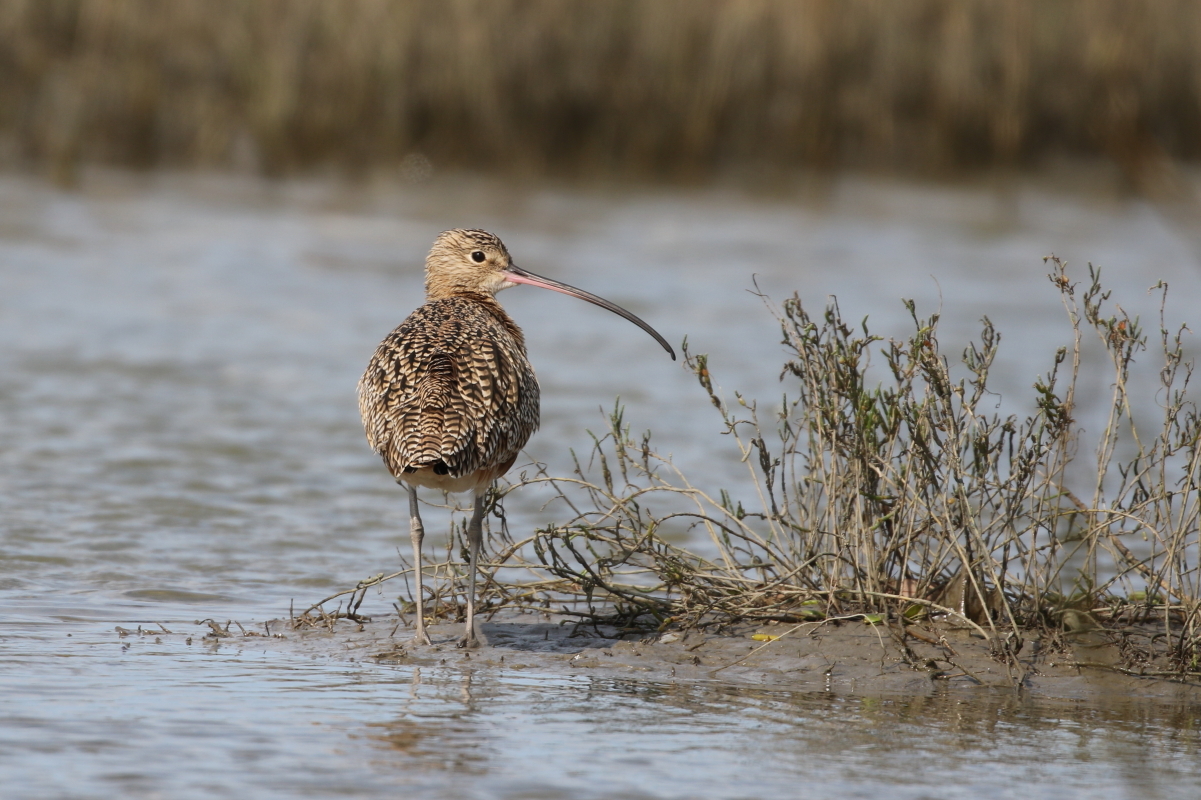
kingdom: Animalia
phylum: Chordata
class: Aves
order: Charadriiformes
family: Scolopacidae
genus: Numenius
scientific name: Numenius americanus
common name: Long-billed curlew
